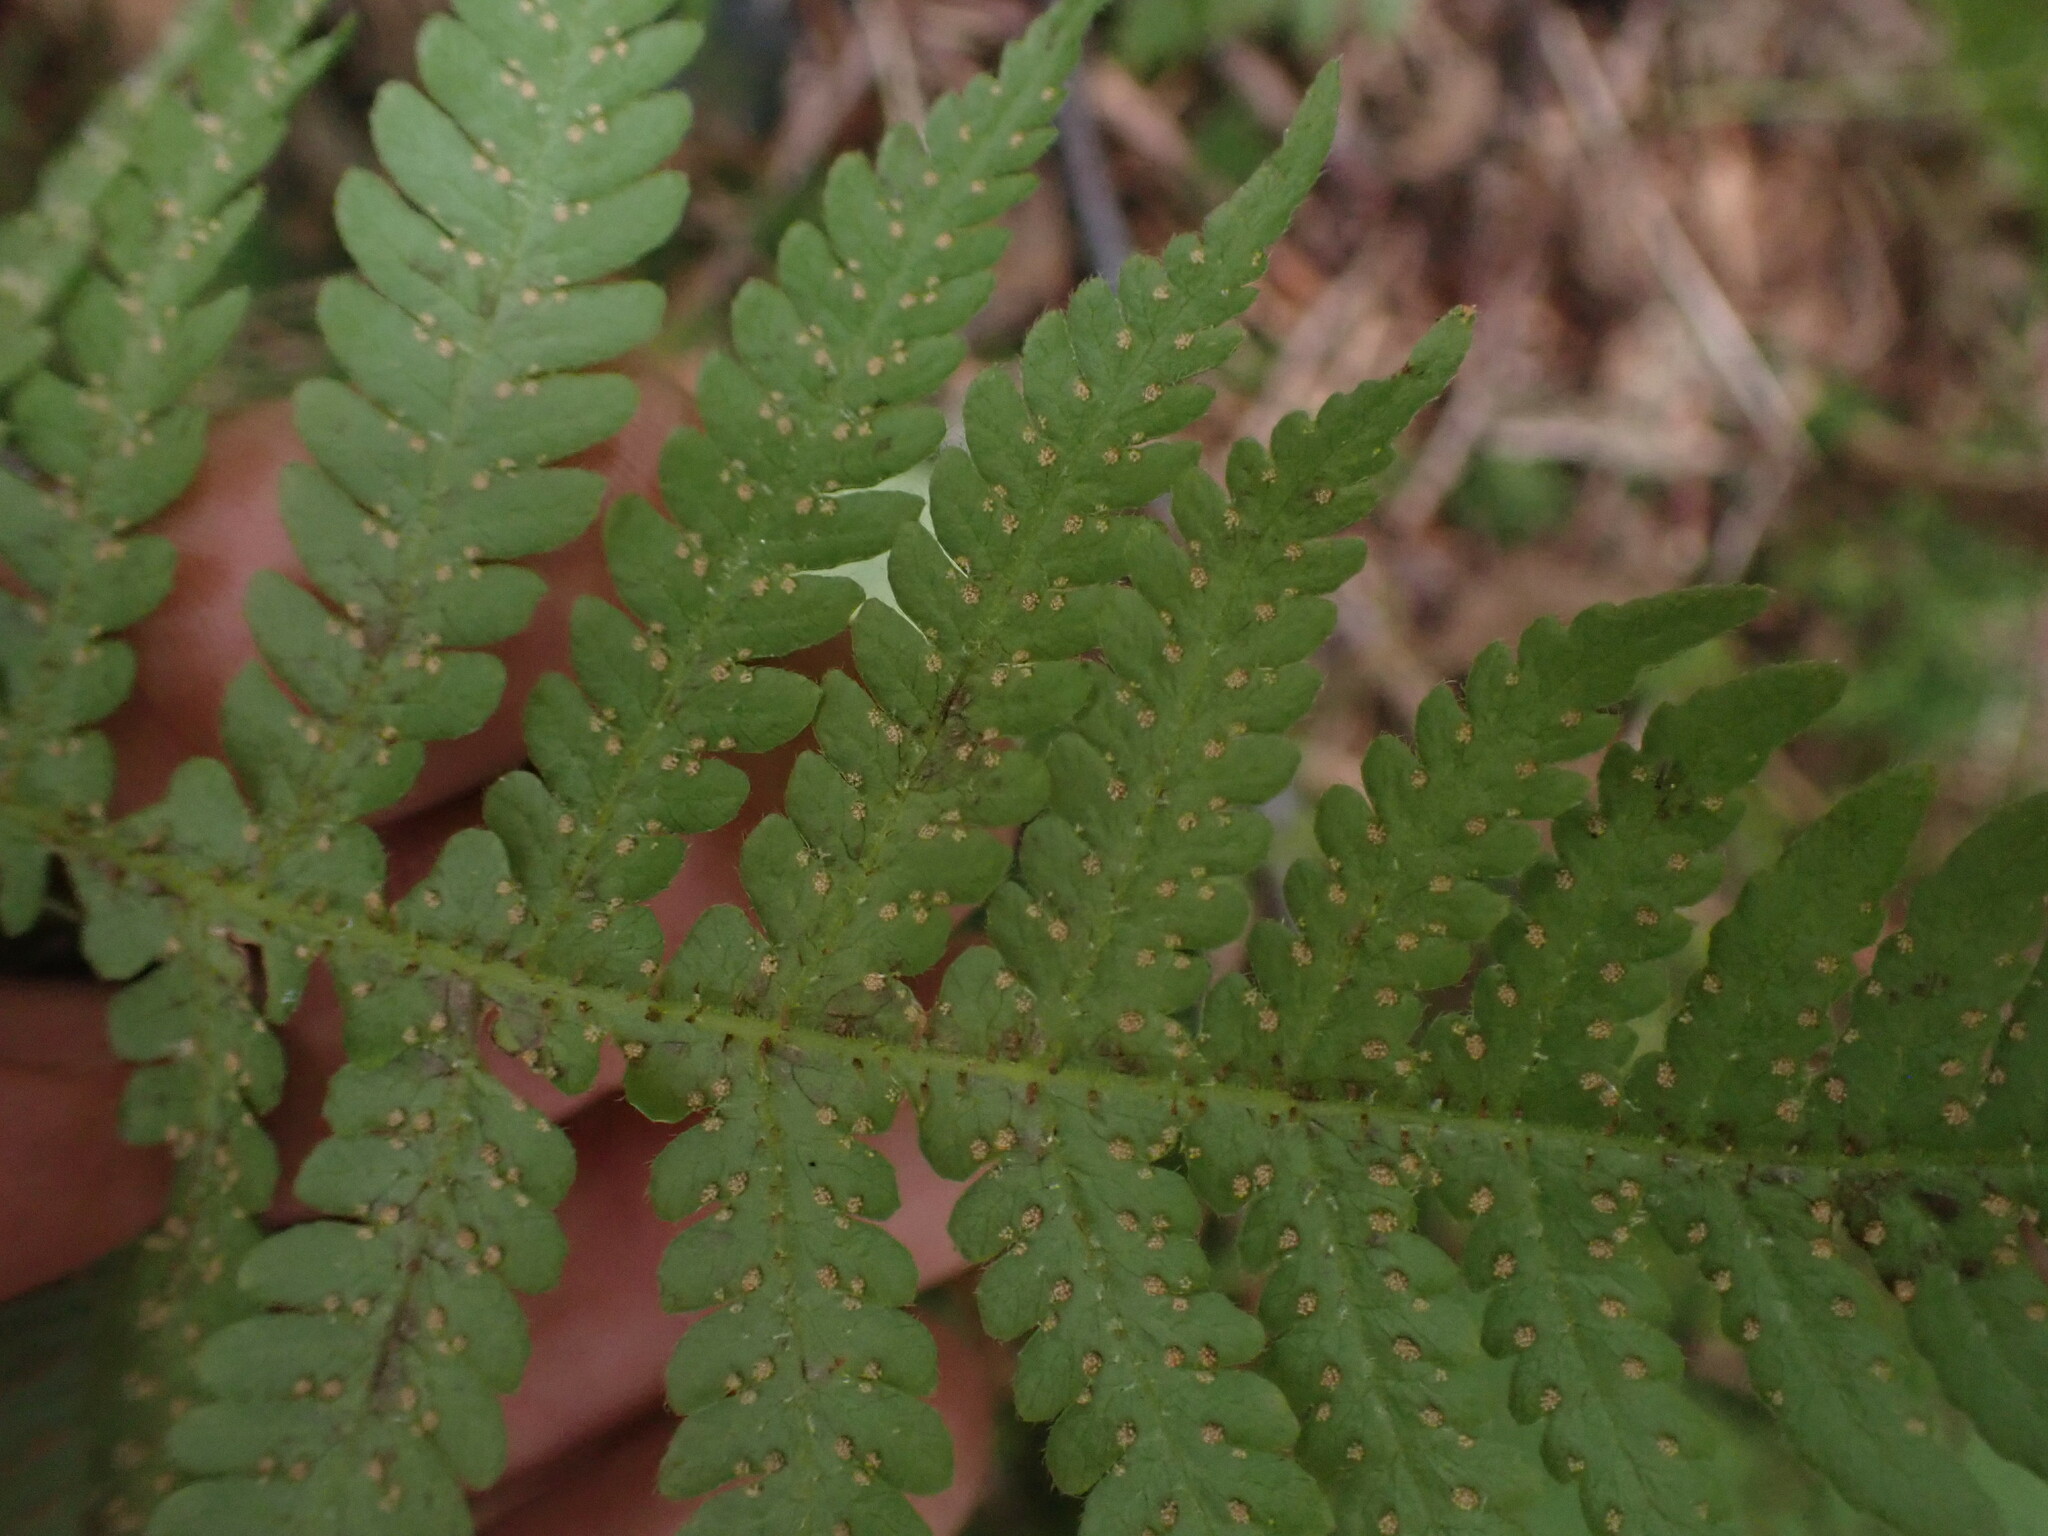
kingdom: Plantae
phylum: Tracheophyta
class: Polypodiopsida
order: Polypodiales
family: Thelypteridaceae
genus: Phegopteris
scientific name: Phegopteris connectilis
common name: Beech fern
